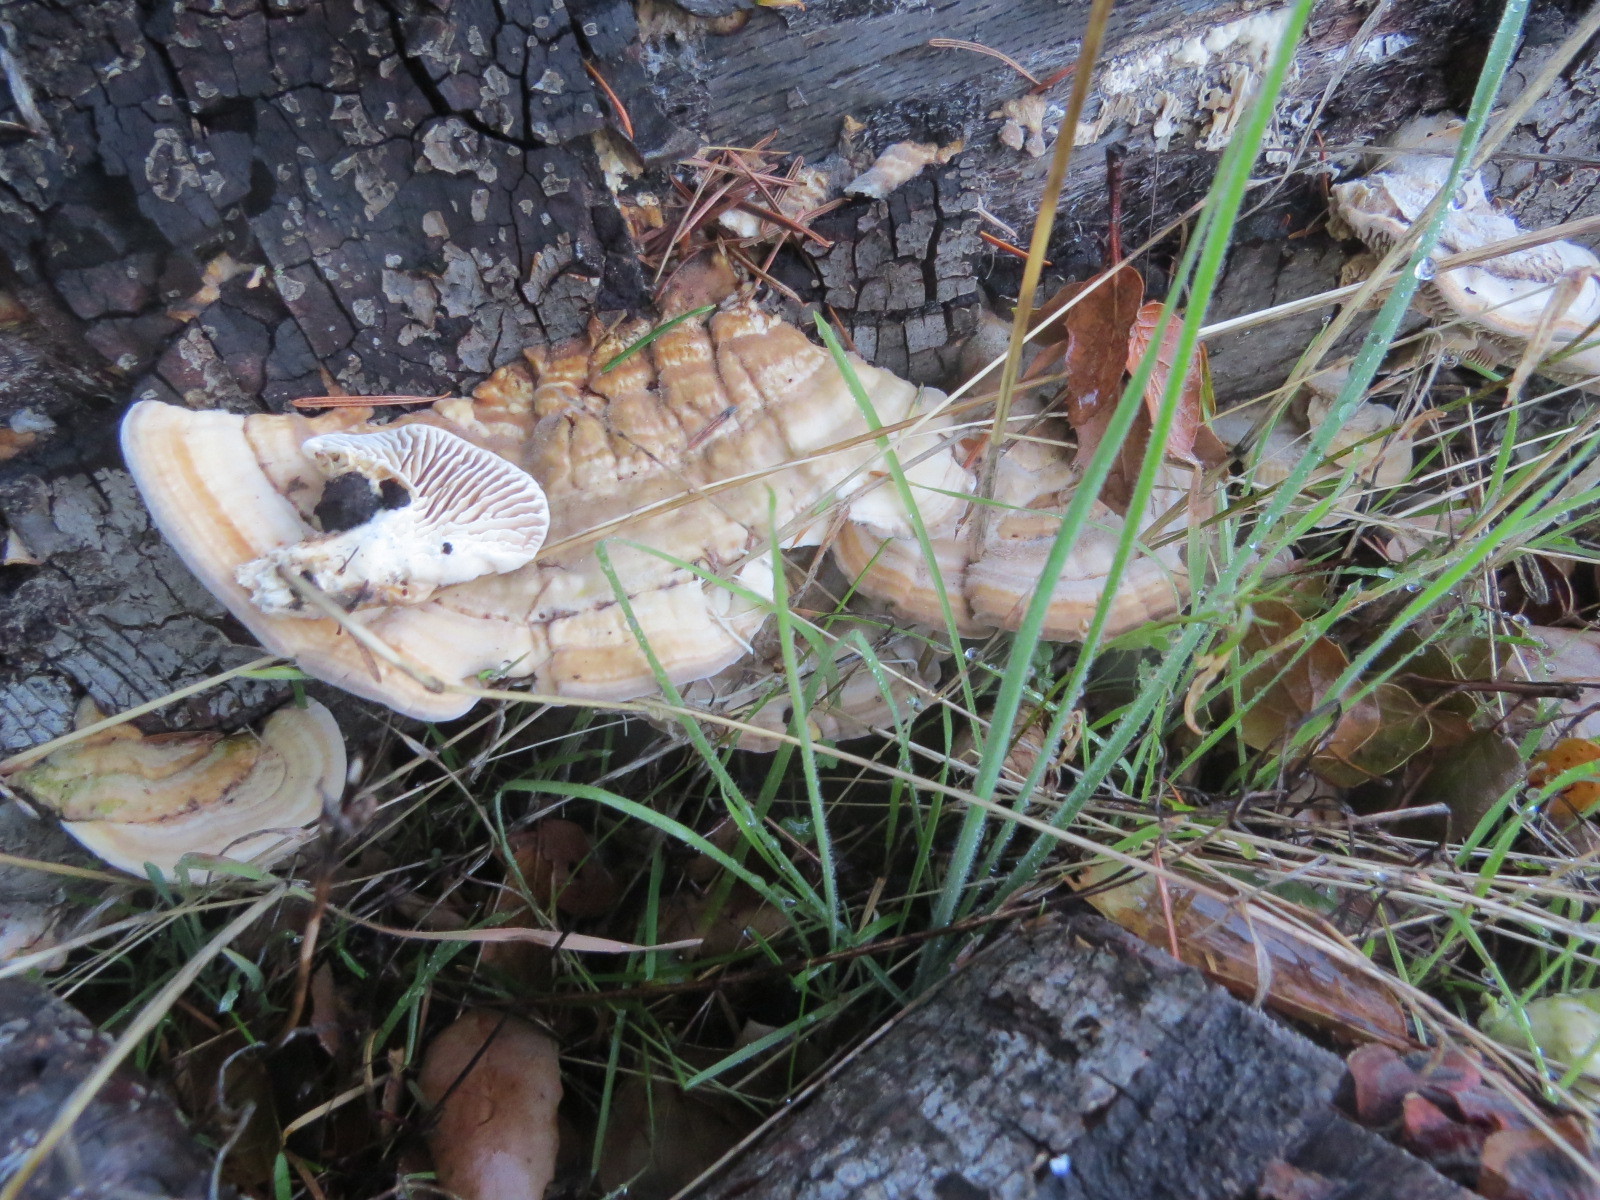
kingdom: Fungi
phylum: Basidiomycota
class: Agaricomycetes
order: Polyporales
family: Polyporaceae
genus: Lenzites
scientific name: Lenzites betulinus
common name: Birch mazegill
